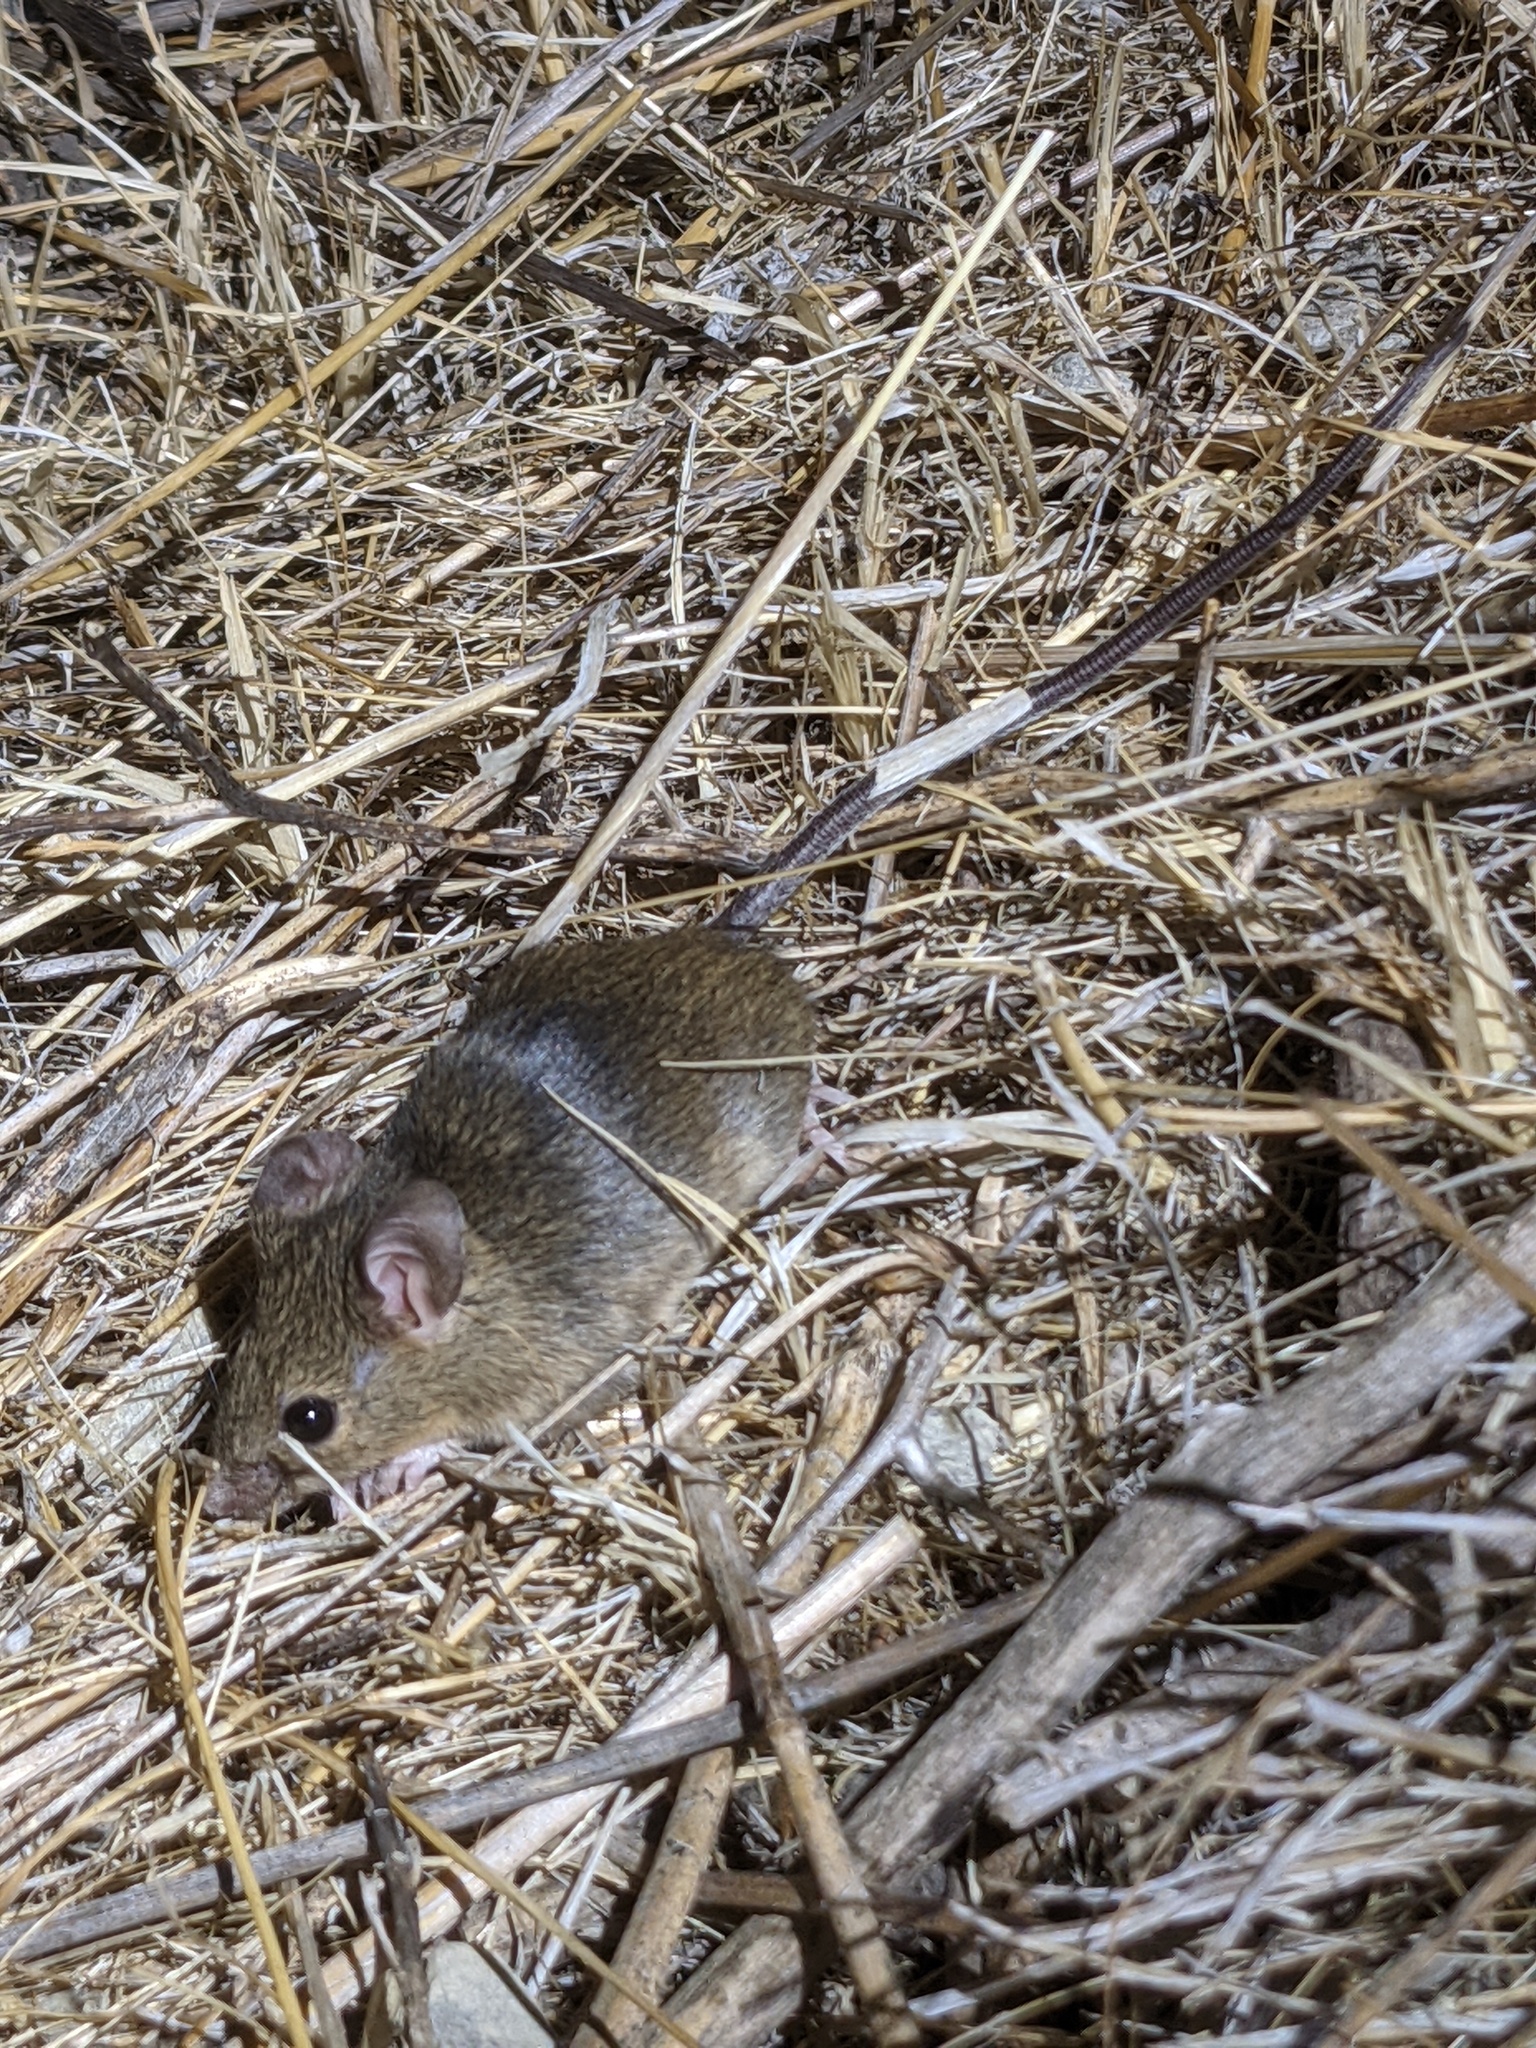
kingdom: Animalia
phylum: Chordata
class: Mammalia
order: Rodentia
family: Cricetidae
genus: Reithrodontomys
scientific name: Reithrodontomys megalotis
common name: Western harvest mouse
